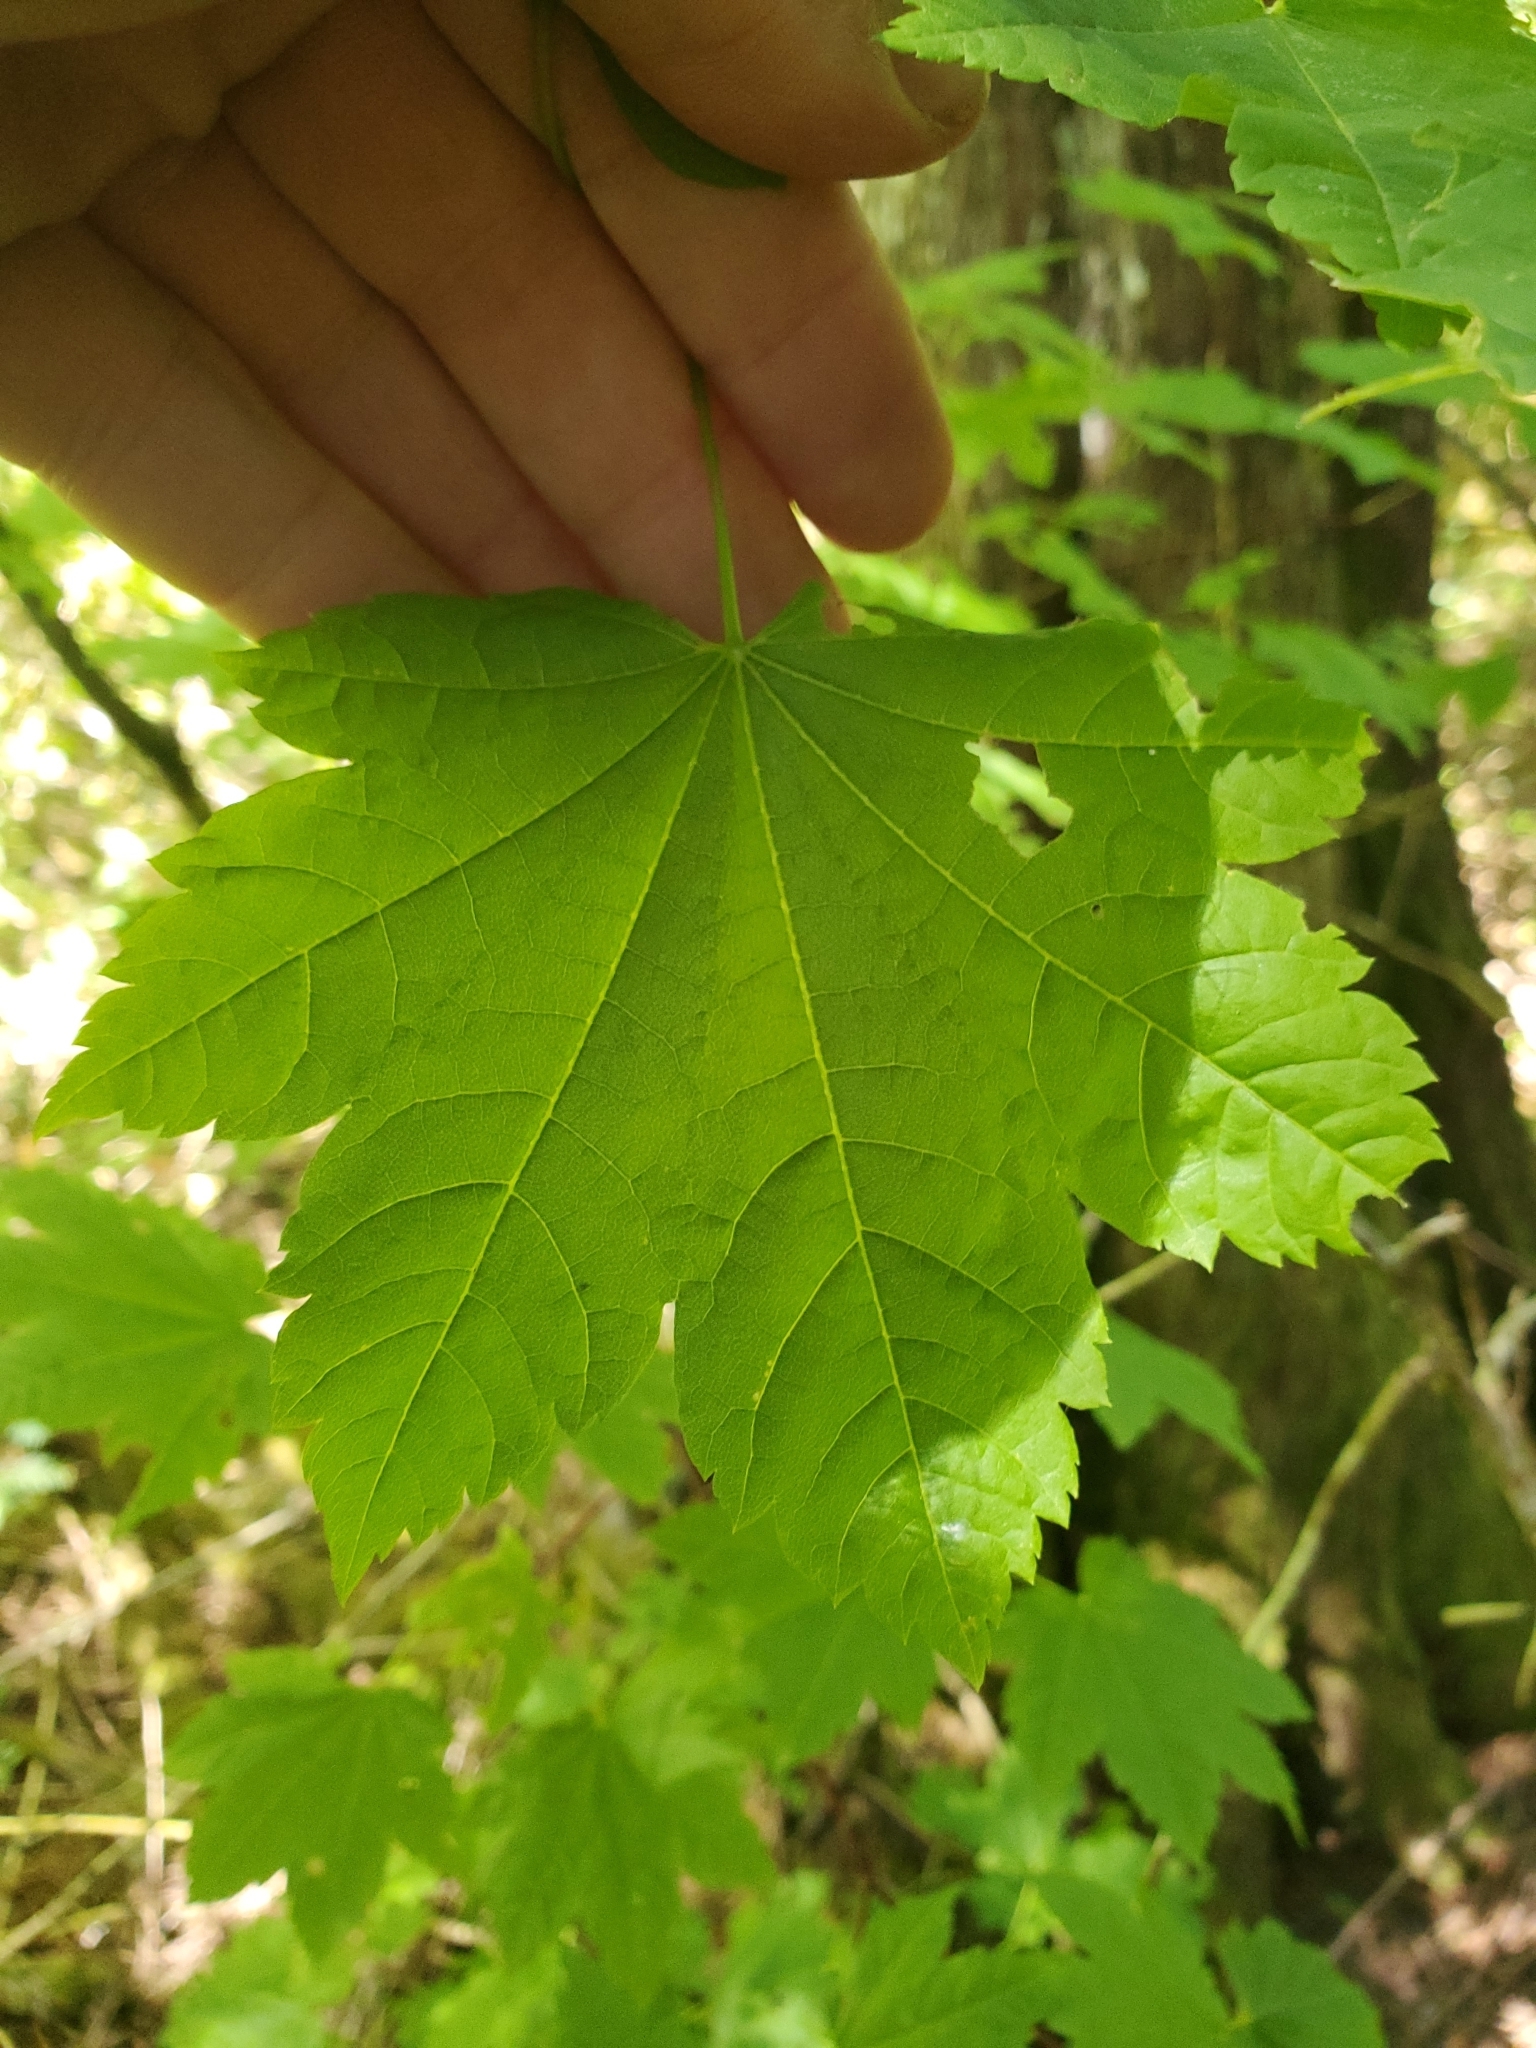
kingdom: Plantae
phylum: Tracheophyta
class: Magnoliopsida
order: Sapindales
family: Sapindaceae
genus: Acer
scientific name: Acer circinatum
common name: Vine maple
